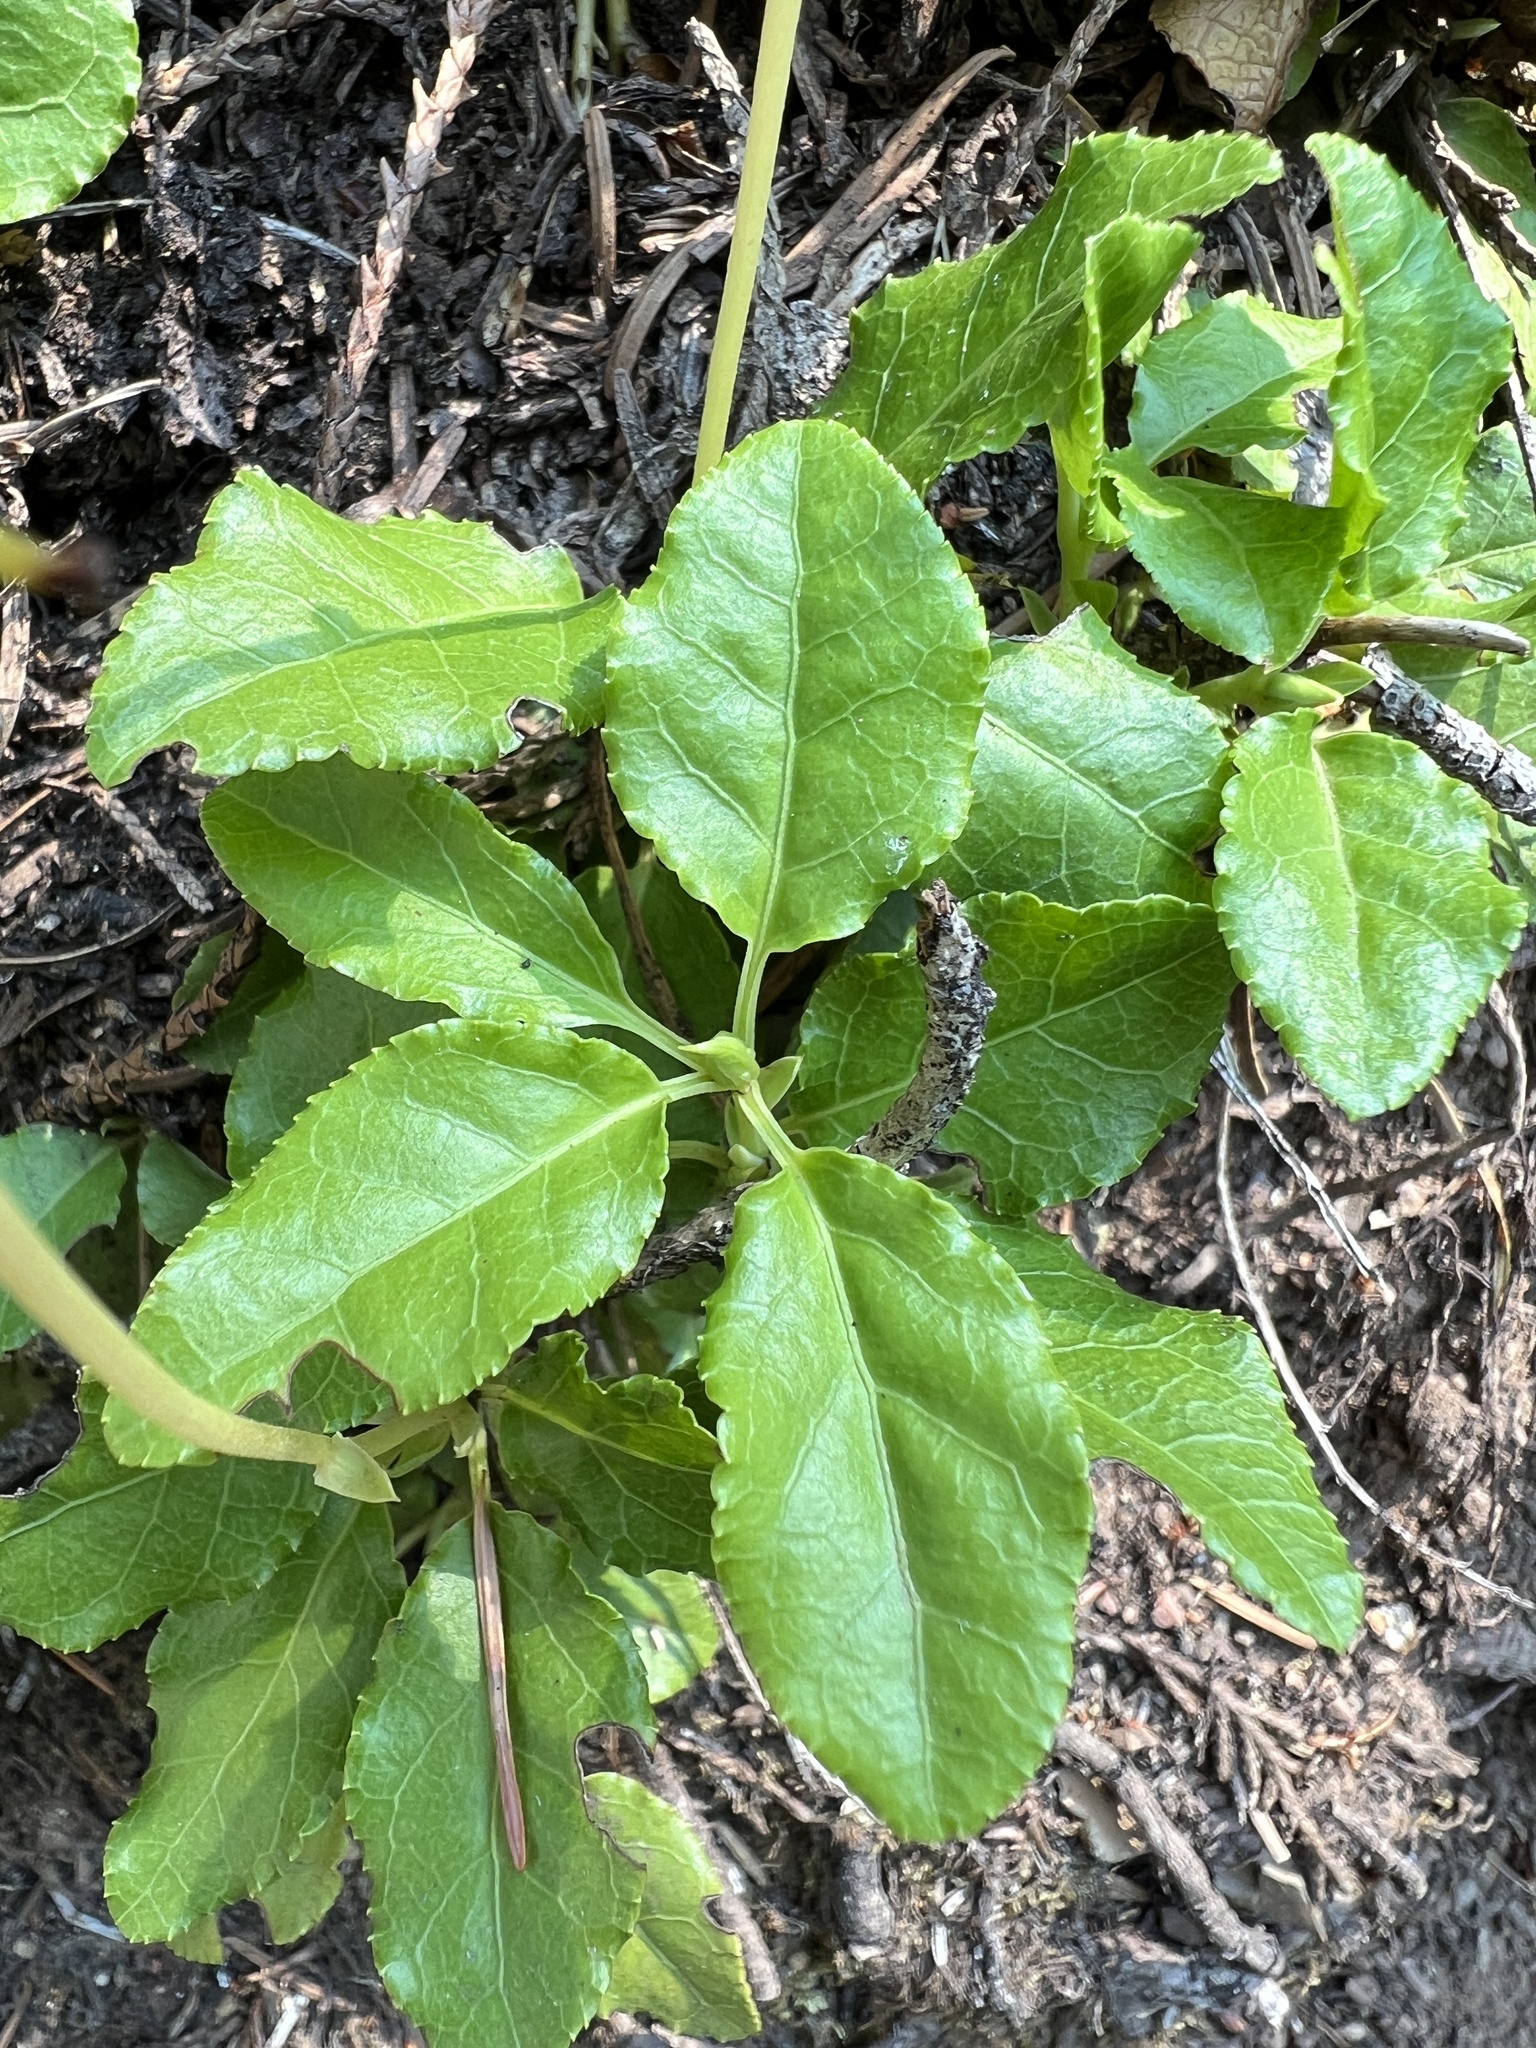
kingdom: Plantae
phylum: Tracheophyta
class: Magnoliopsida
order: Ericales
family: Ericaceae
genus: Orthilia
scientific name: Orthilia secunda
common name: One-sided orthilia
